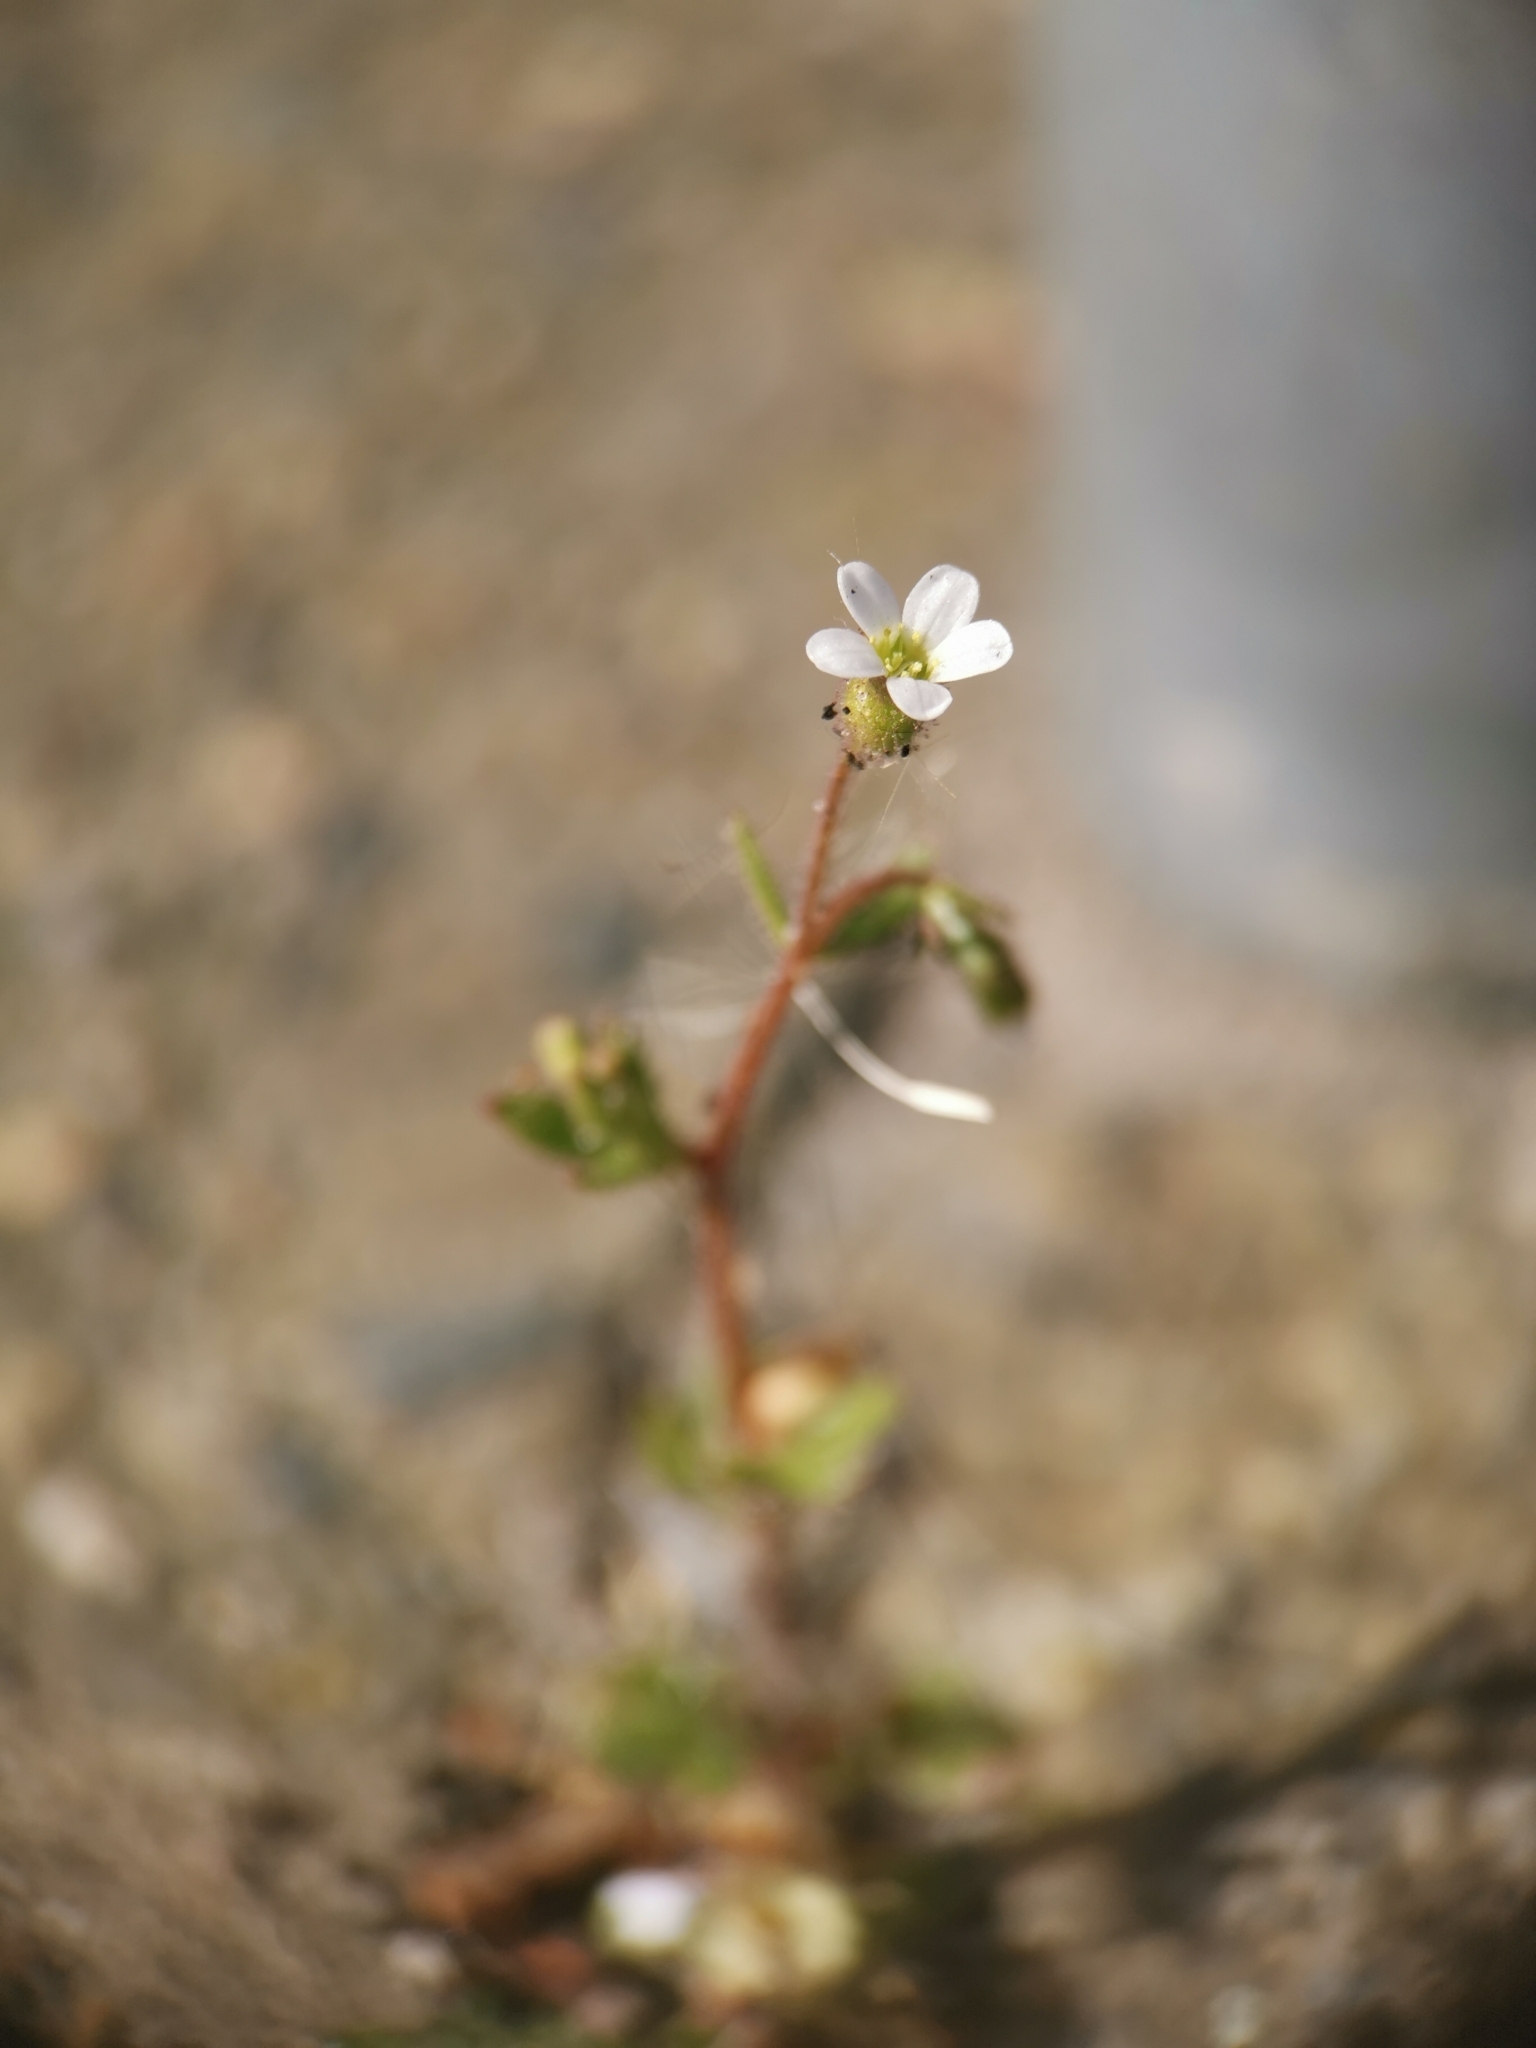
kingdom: Plantae
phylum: Tracheophyta
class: Magnoliopsida
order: Saxifragales
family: Saxifragaceae
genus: Saxifraga
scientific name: Saxifraga tridactylites
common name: Rue-leaved saxifrage
